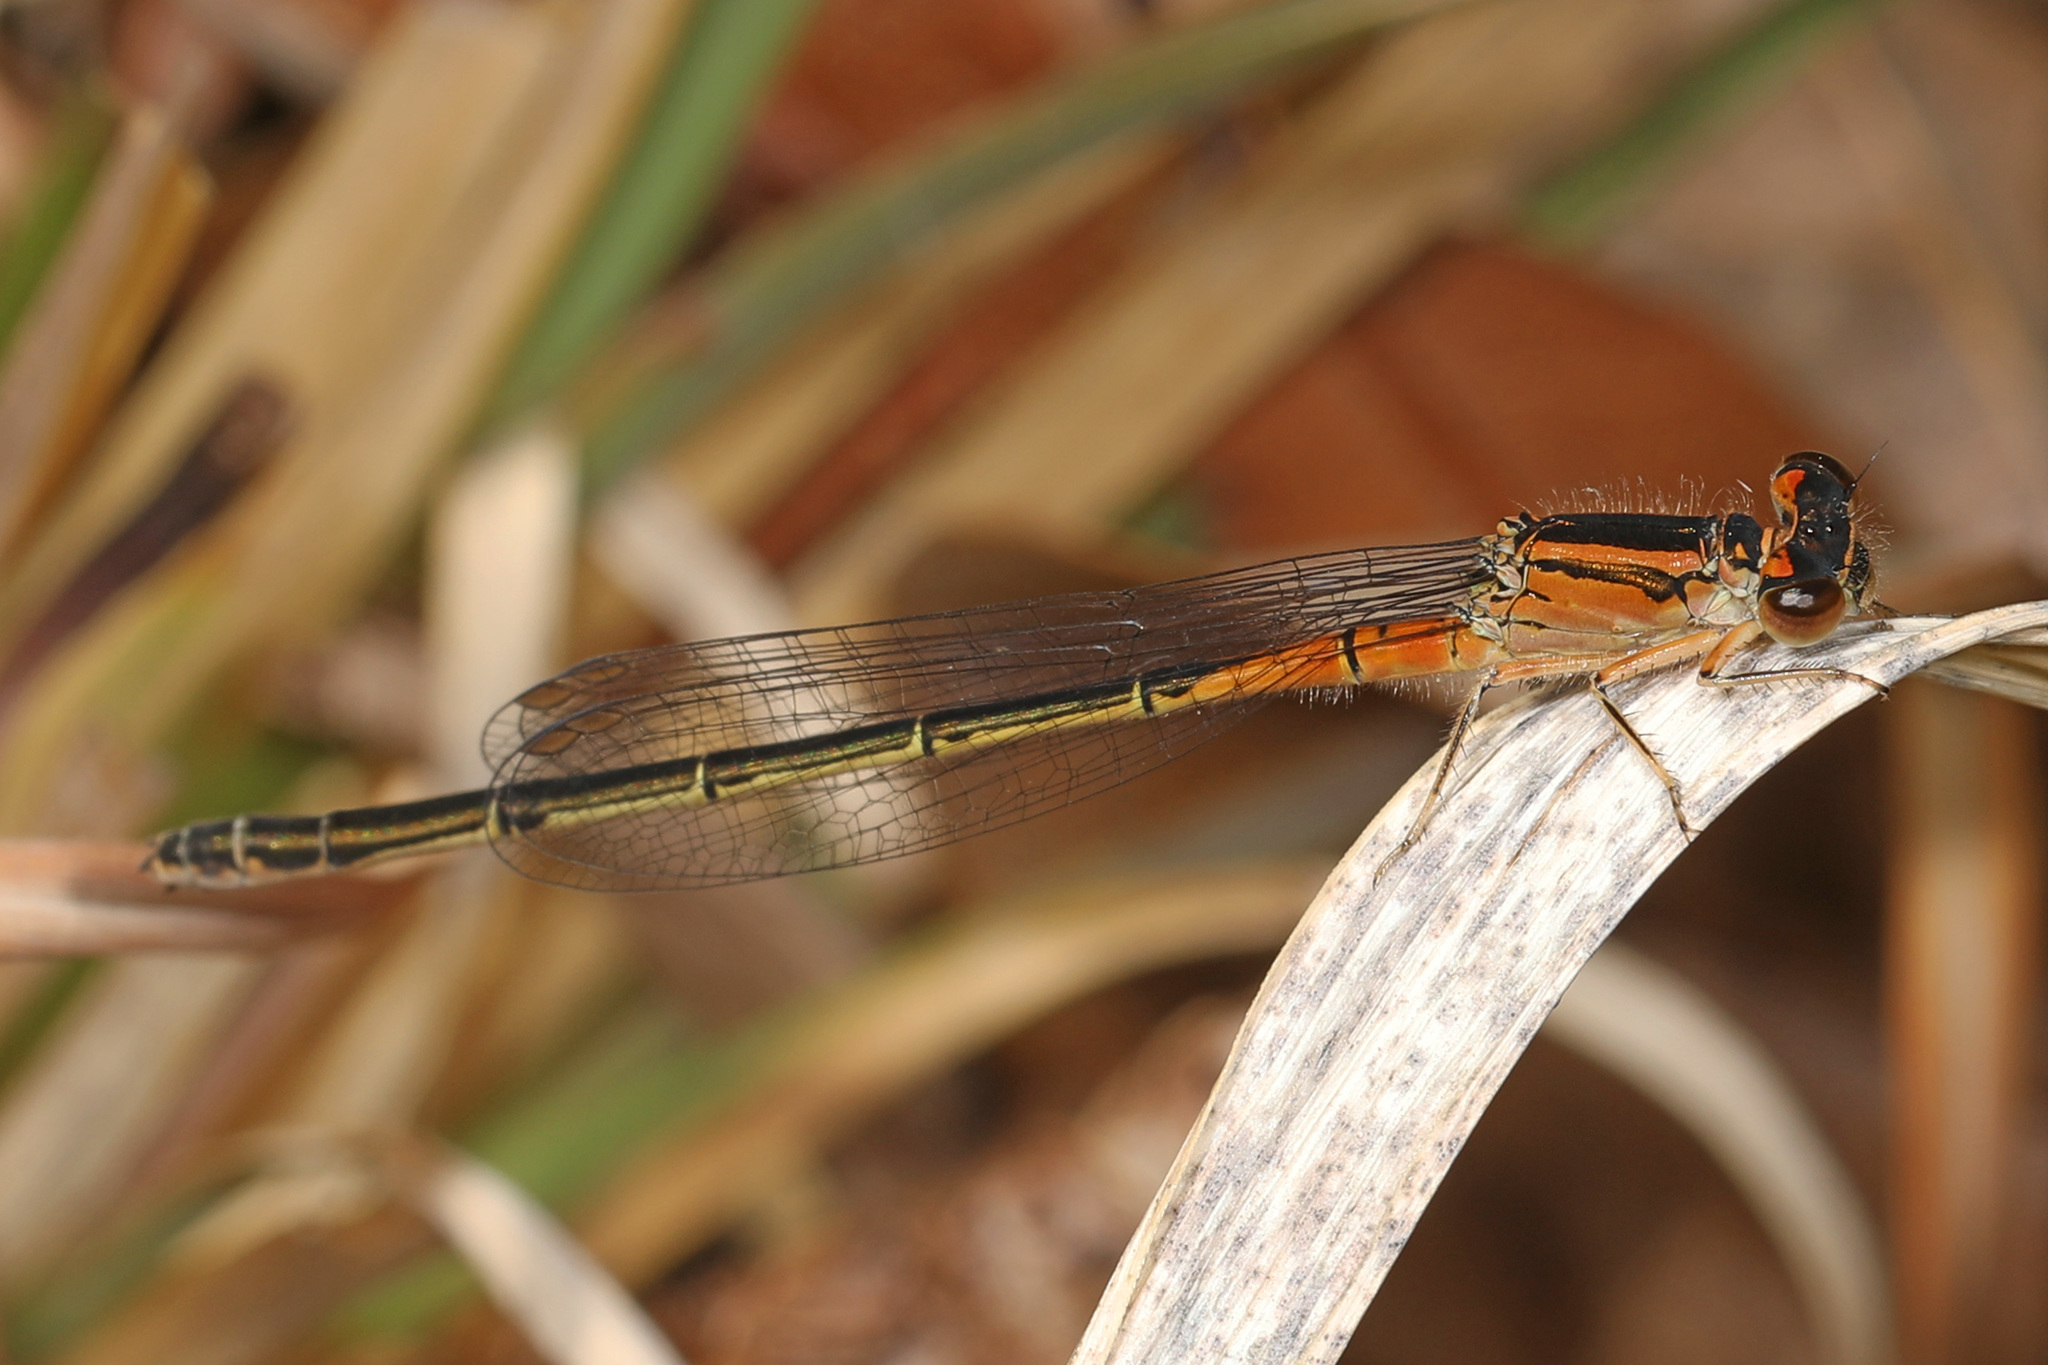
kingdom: Animalia
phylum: Arthropoda
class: Insecta
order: Odonata
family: Coenagrionidae
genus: Ischnura
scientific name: Ischnura verticalis
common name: Eastern forktail
